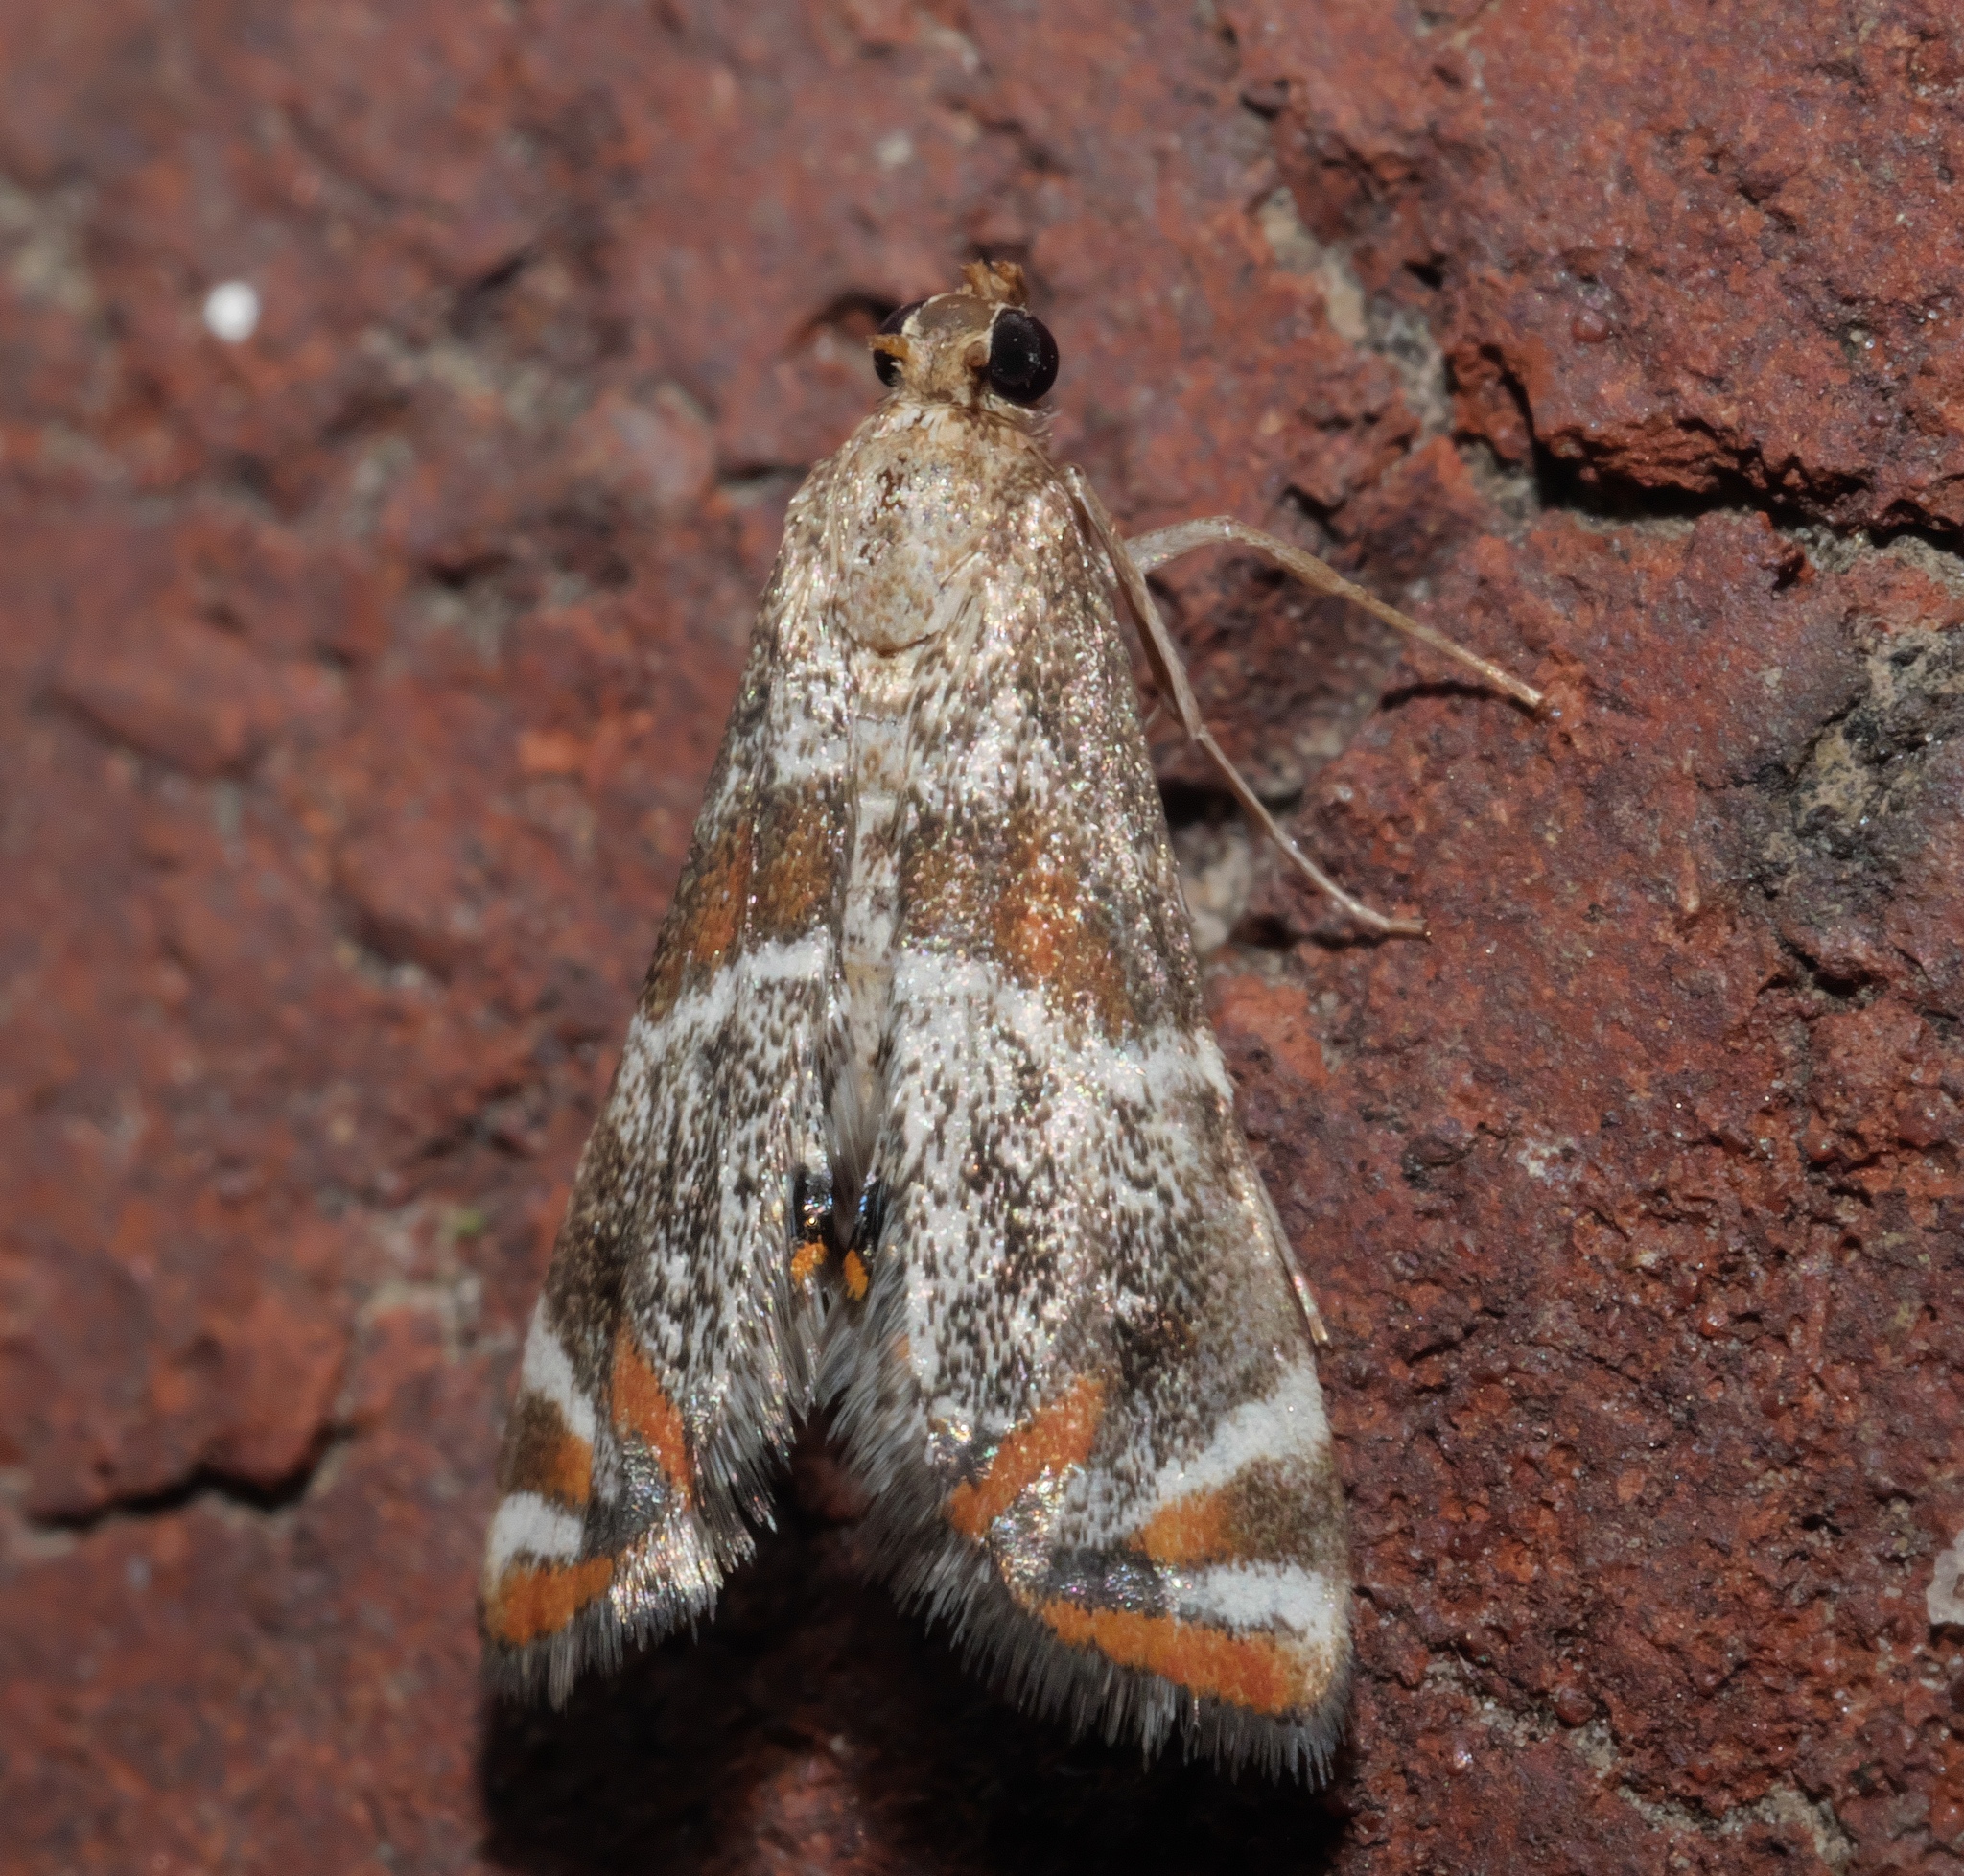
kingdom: Animalia
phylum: Arthropoda
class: Insecta
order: Lepidoptera
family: Crambidae
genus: Petrophila
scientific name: Petrophila jaliscalis
